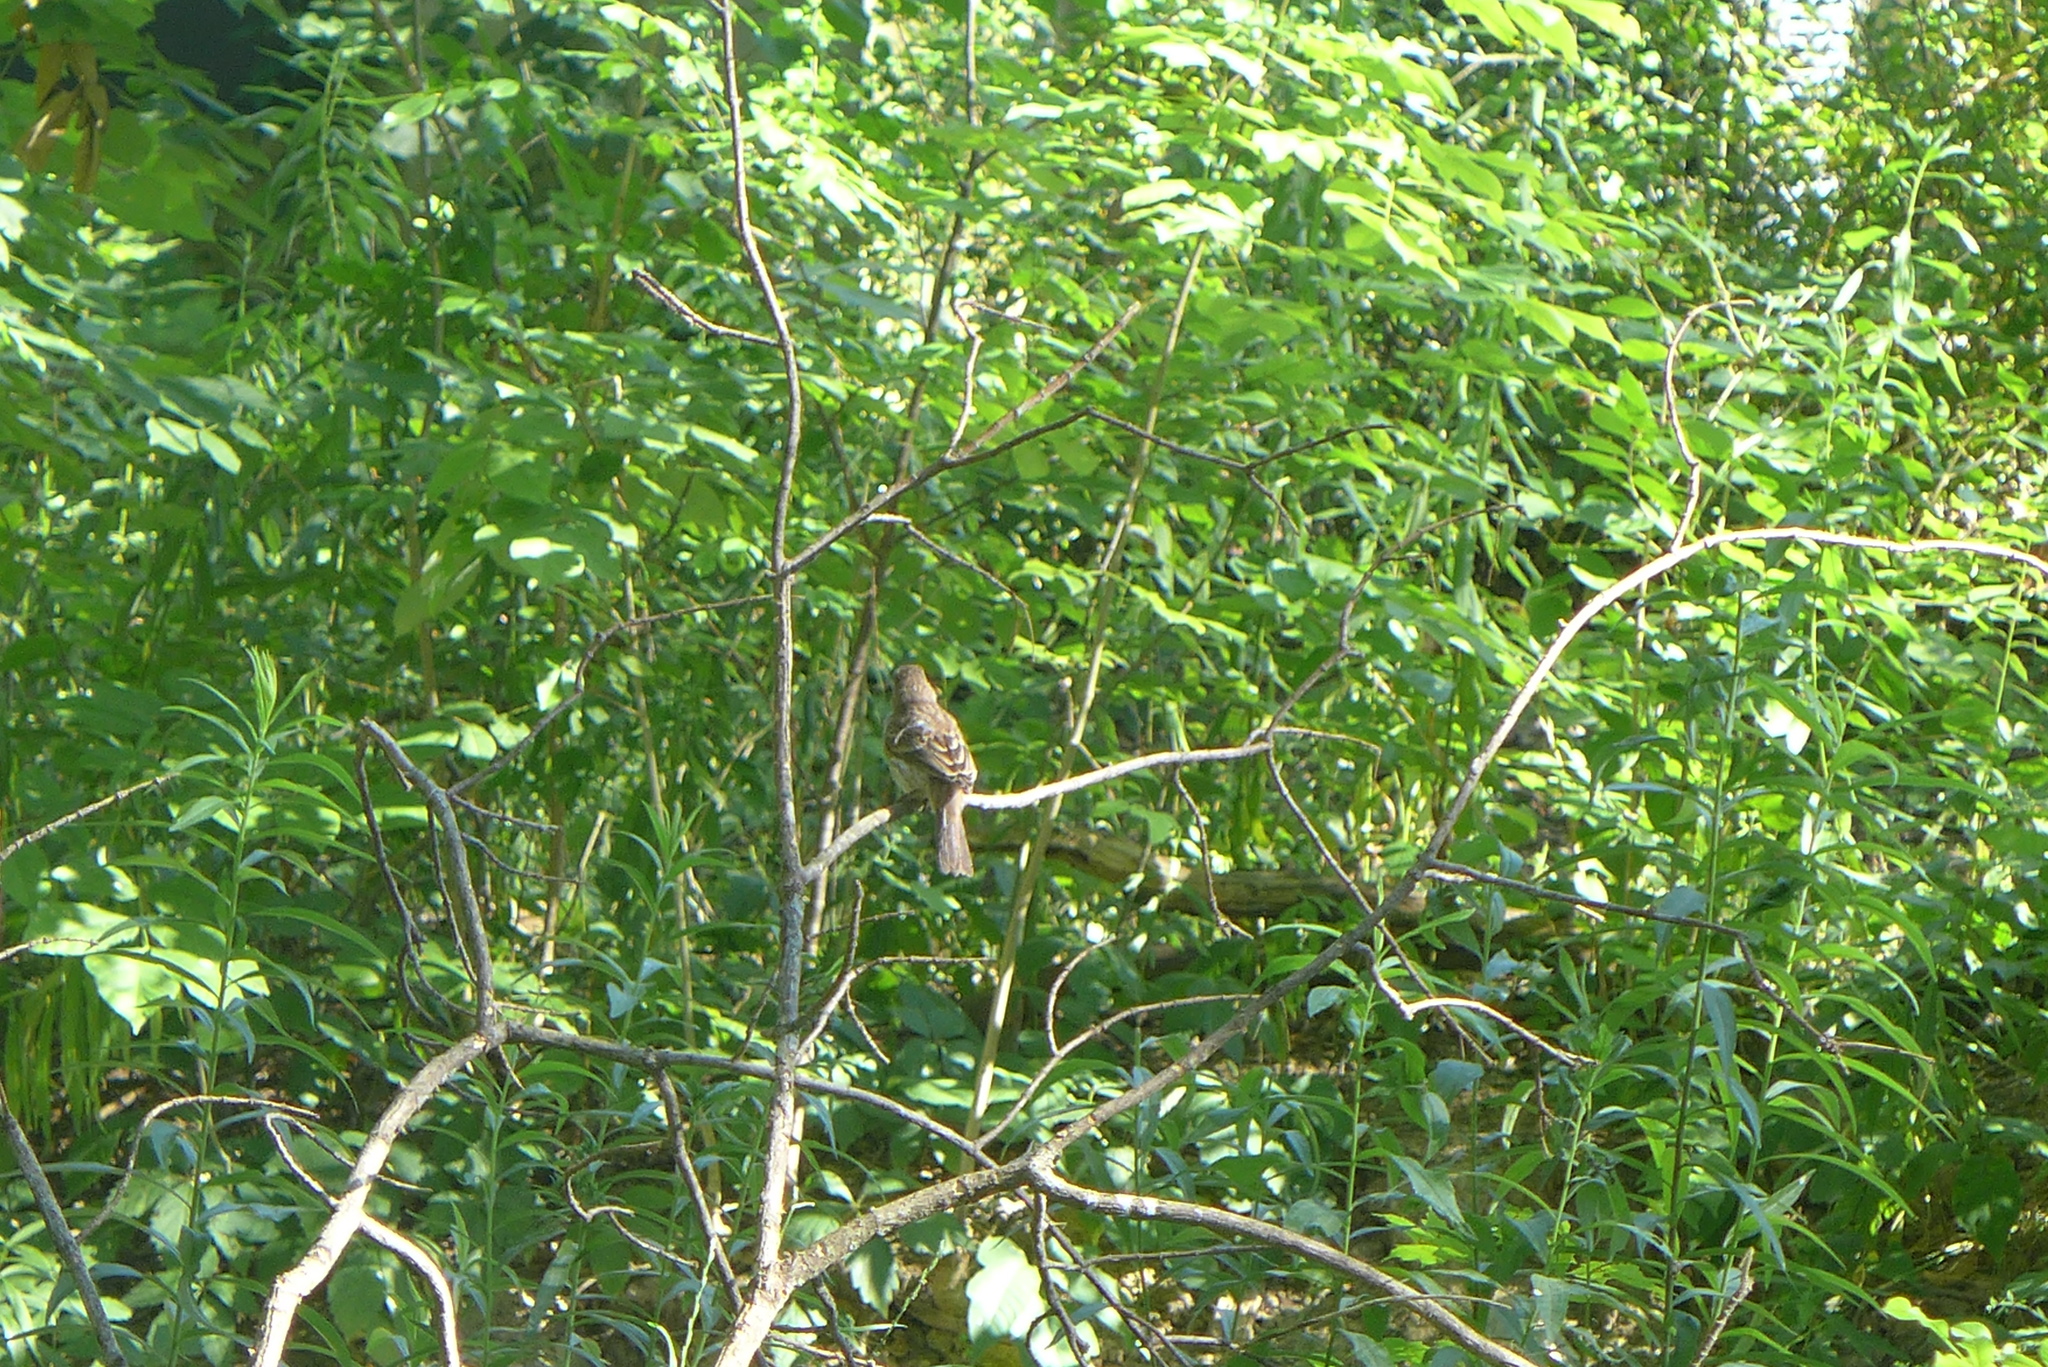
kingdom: Animalia
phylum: Chordata
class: Aves
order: Passeriformes
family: Tyrannidae
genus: Empidonax
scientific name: Empidonax traillii
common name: Willow flycatcher
